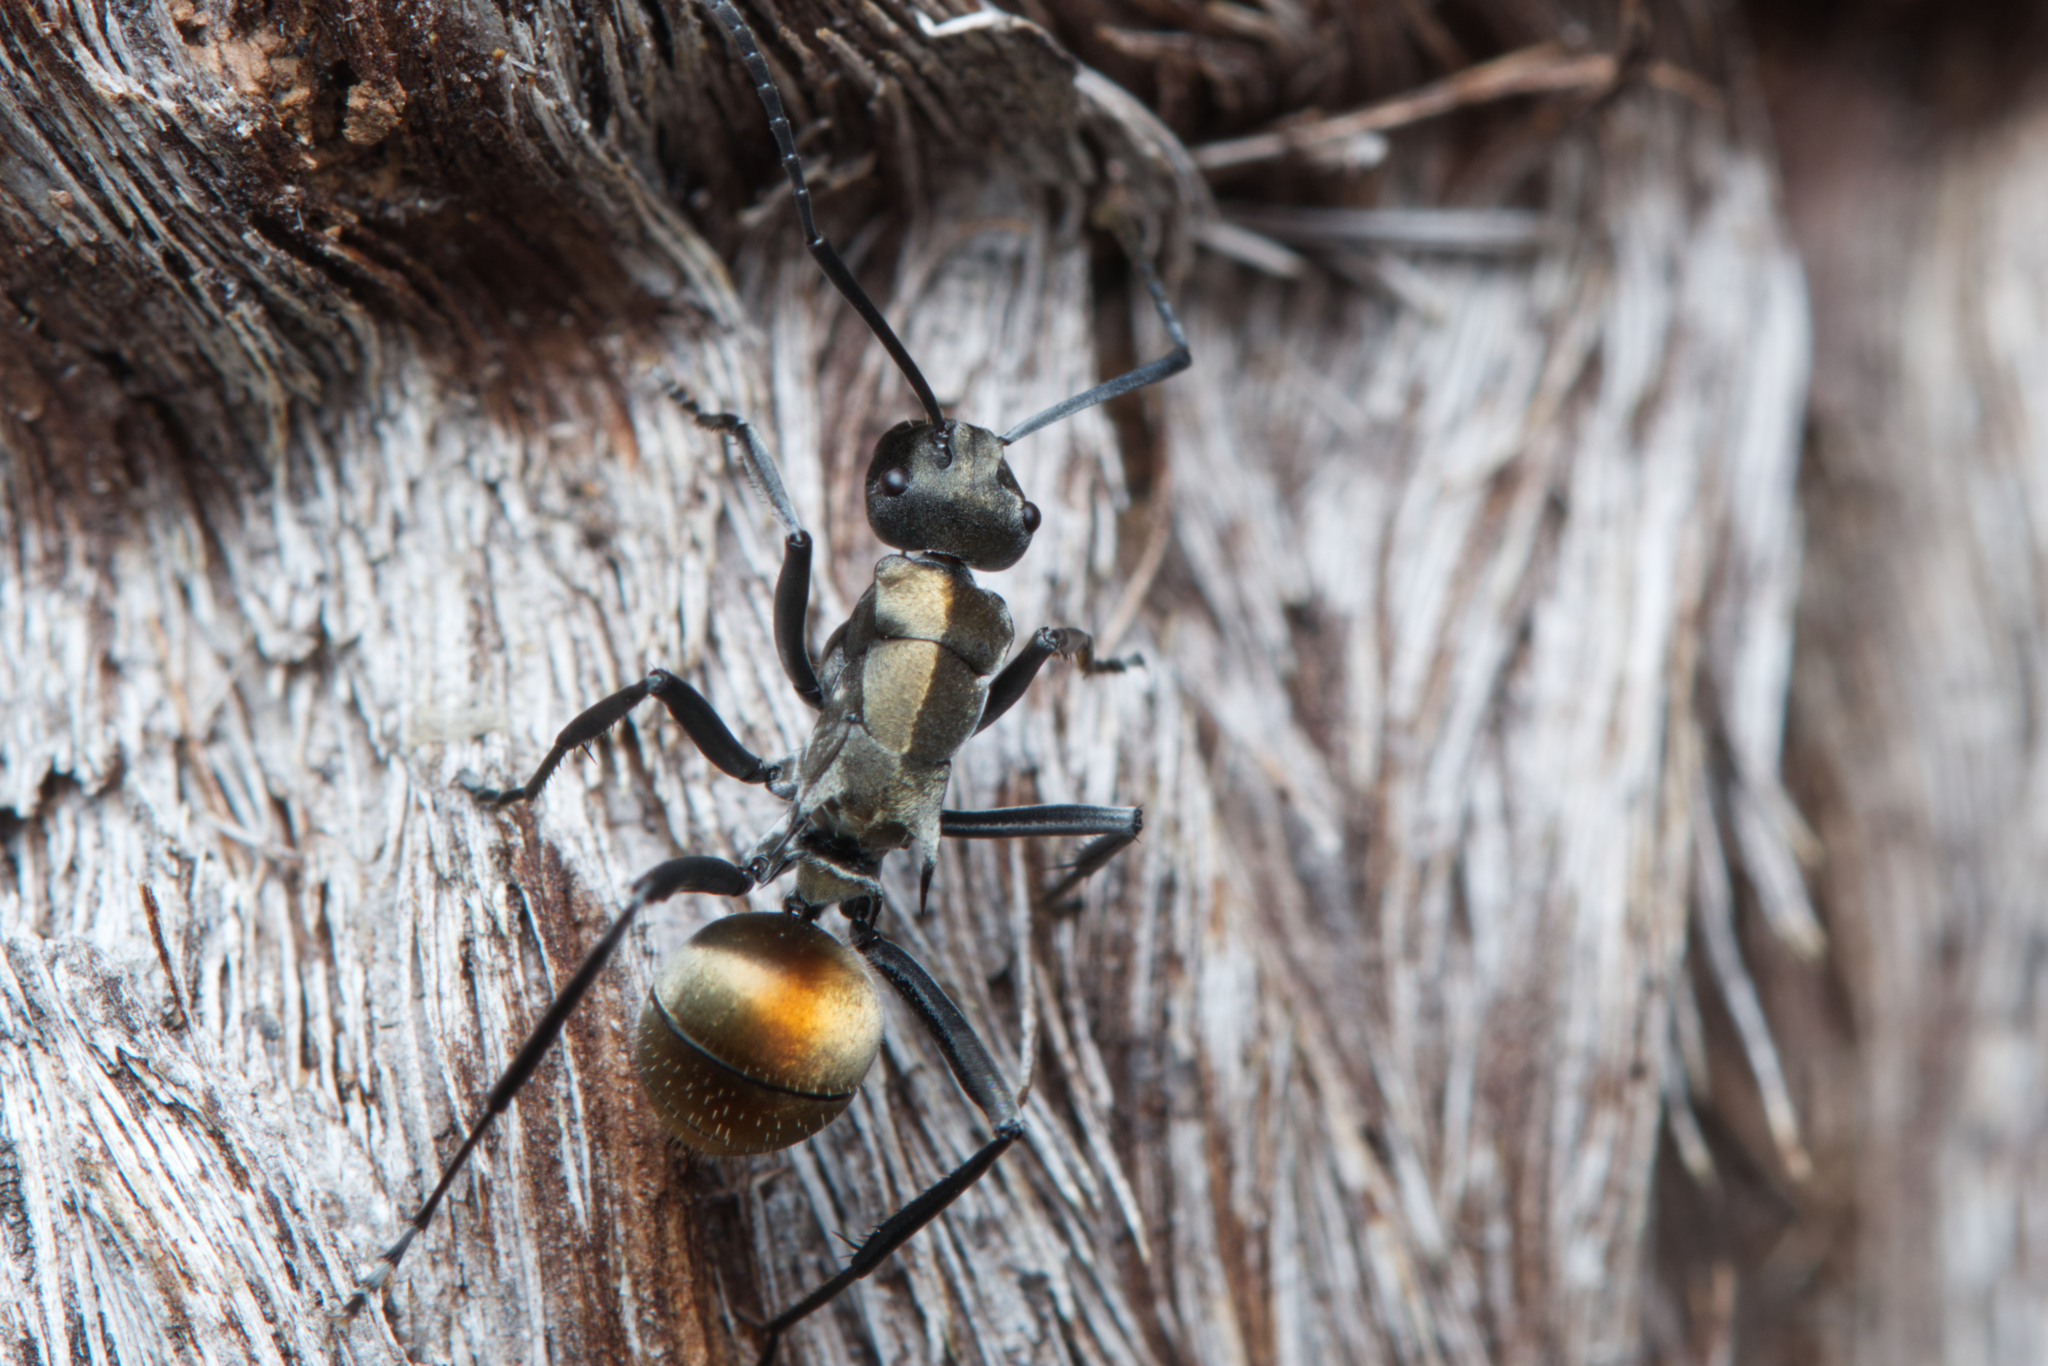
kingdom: Animalia
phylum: Arthropoda
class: Insecta
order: Hymenoptera
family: Formicidae
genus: Polyrhachis
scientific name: Polyrhachis ammon
